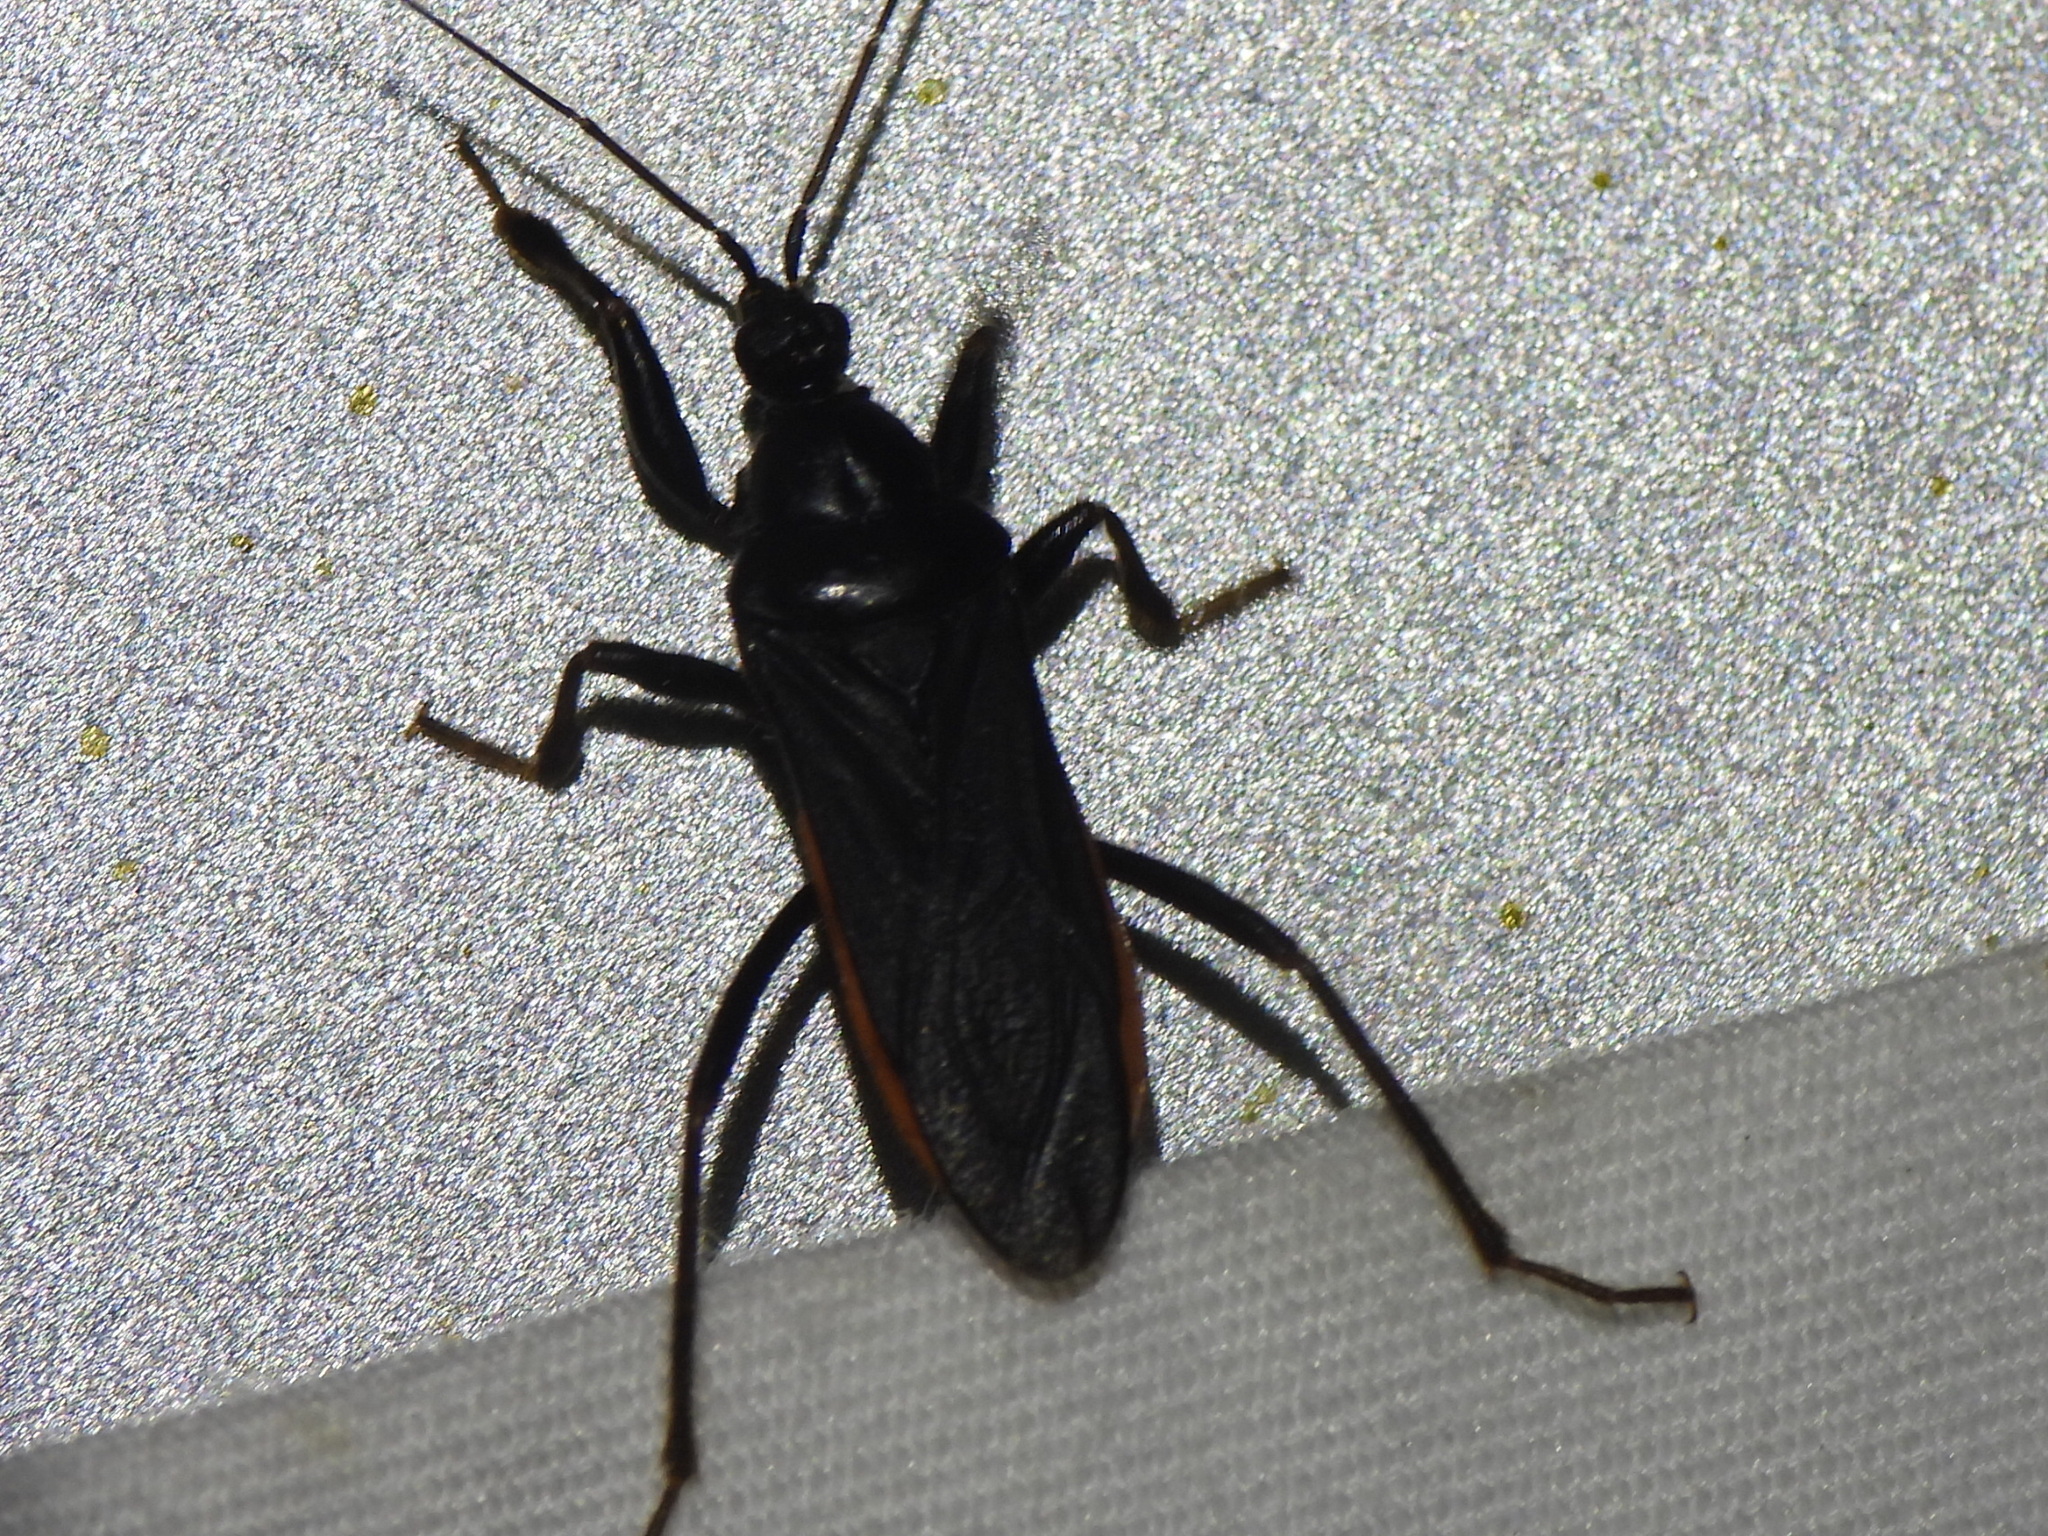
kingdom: Animalia
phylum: Arthropoda
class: Insecta
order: Hemiptera
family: Reduviidae
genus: Melanolestes
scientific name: Melanolestes picipes
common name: Assassin bug
